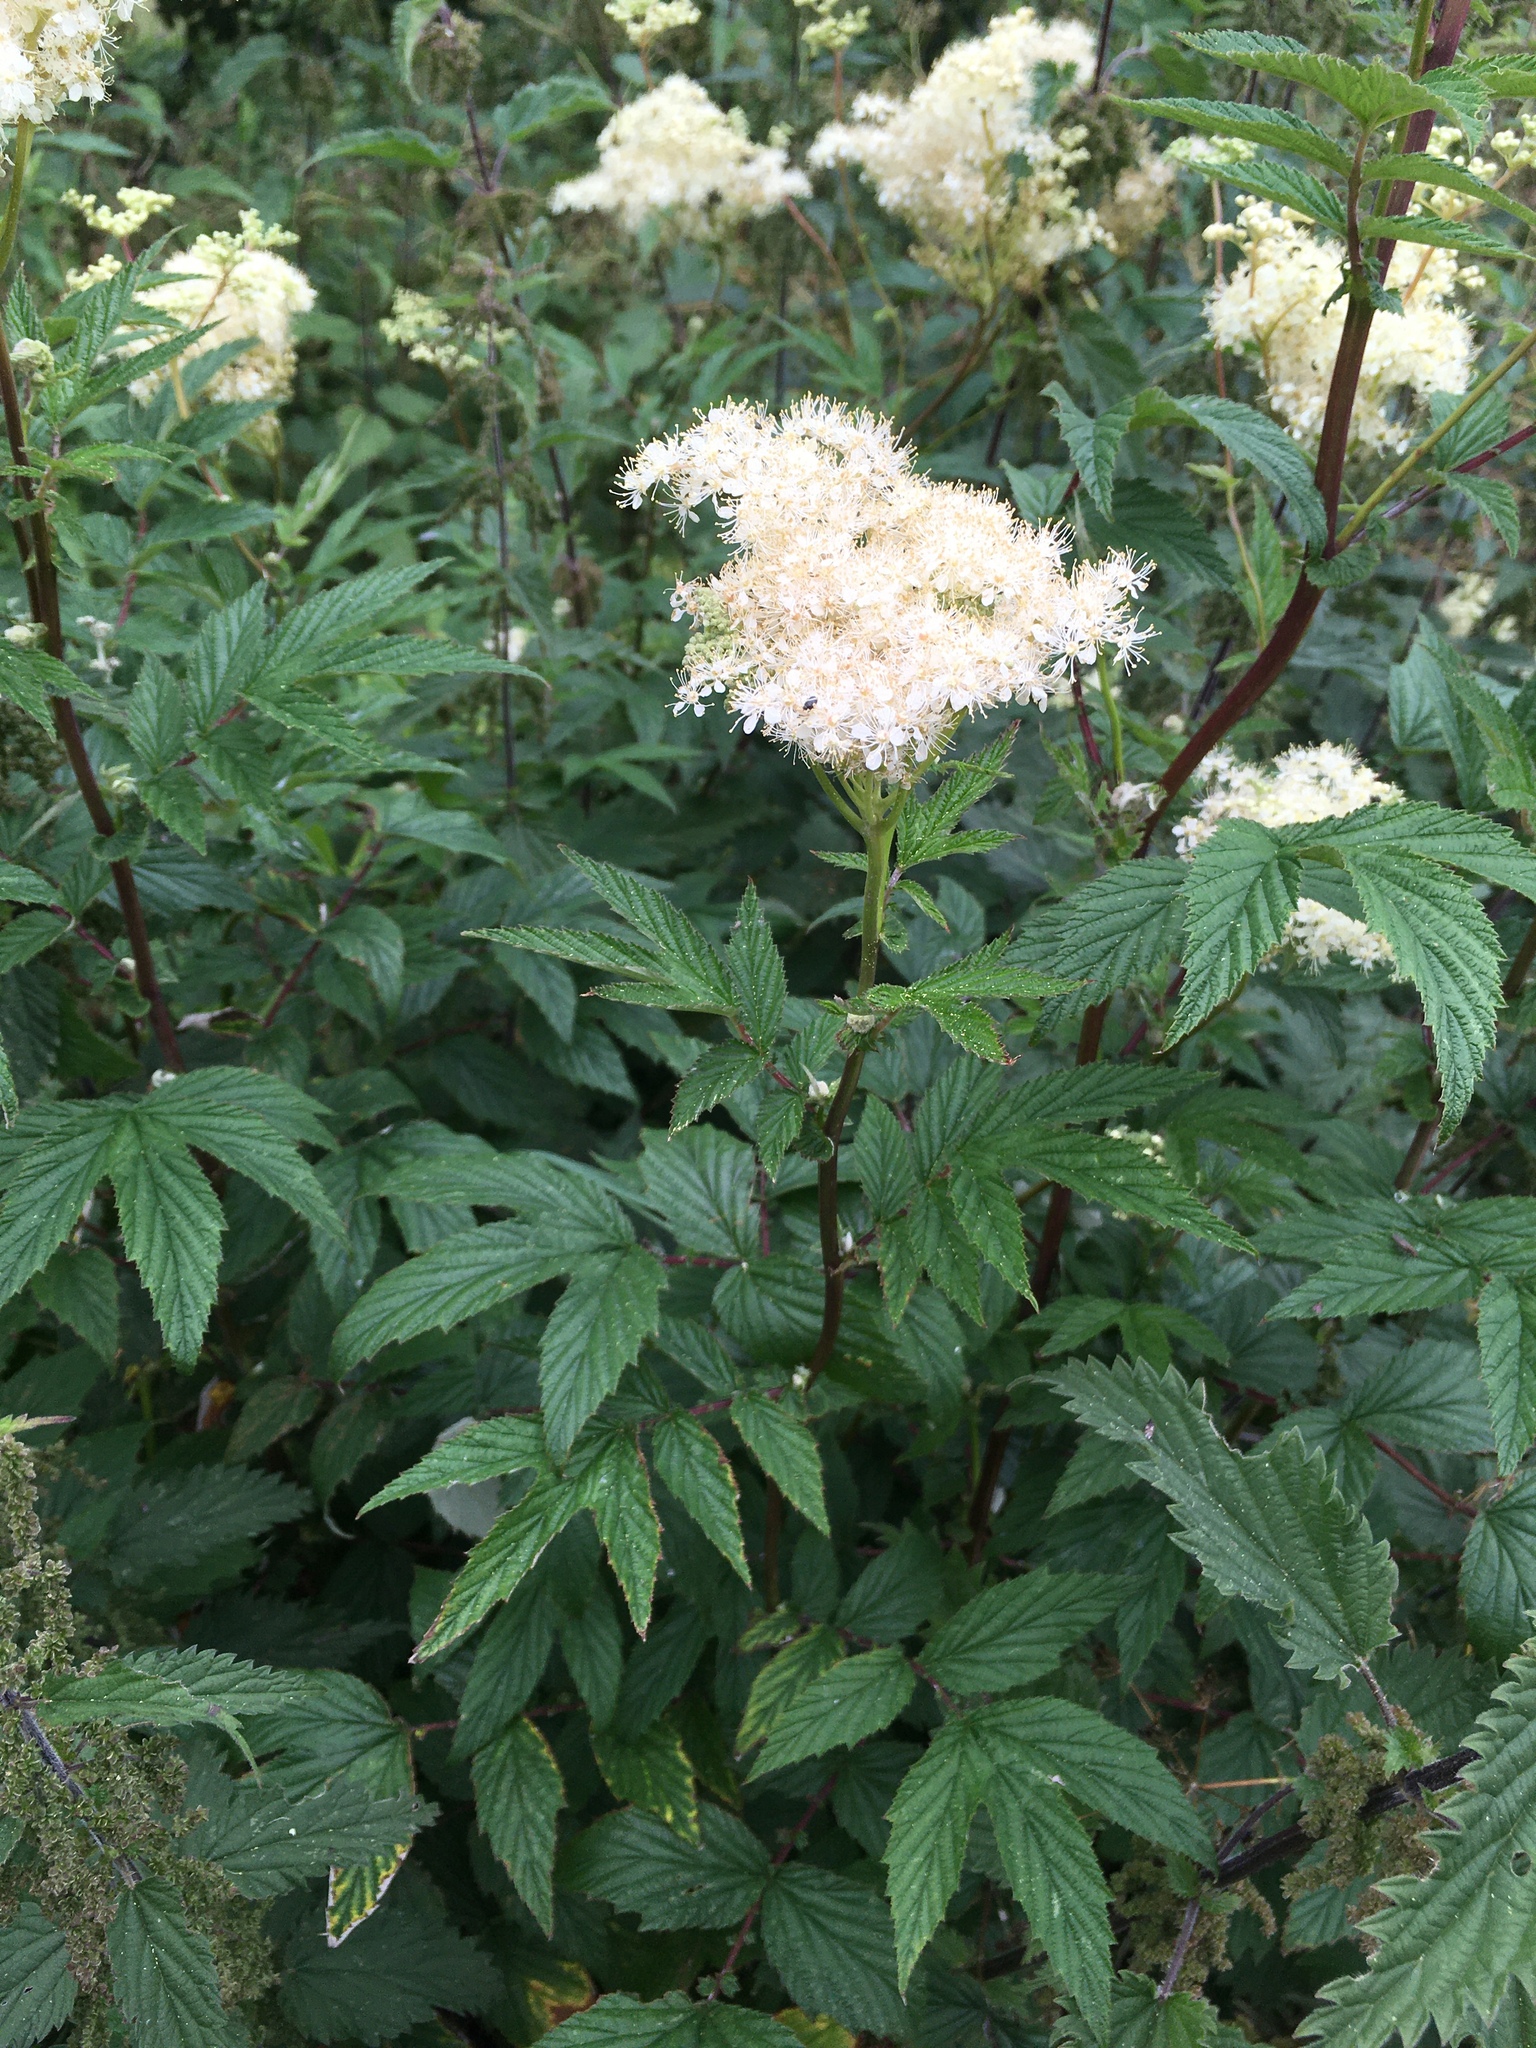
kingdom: Plantae
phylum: Tracheophyta
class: Magnoliopsida
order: Rosales
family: Rosaceae
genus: Filipendula
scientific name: Filipendula ulmaria
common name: Meadowsweet
